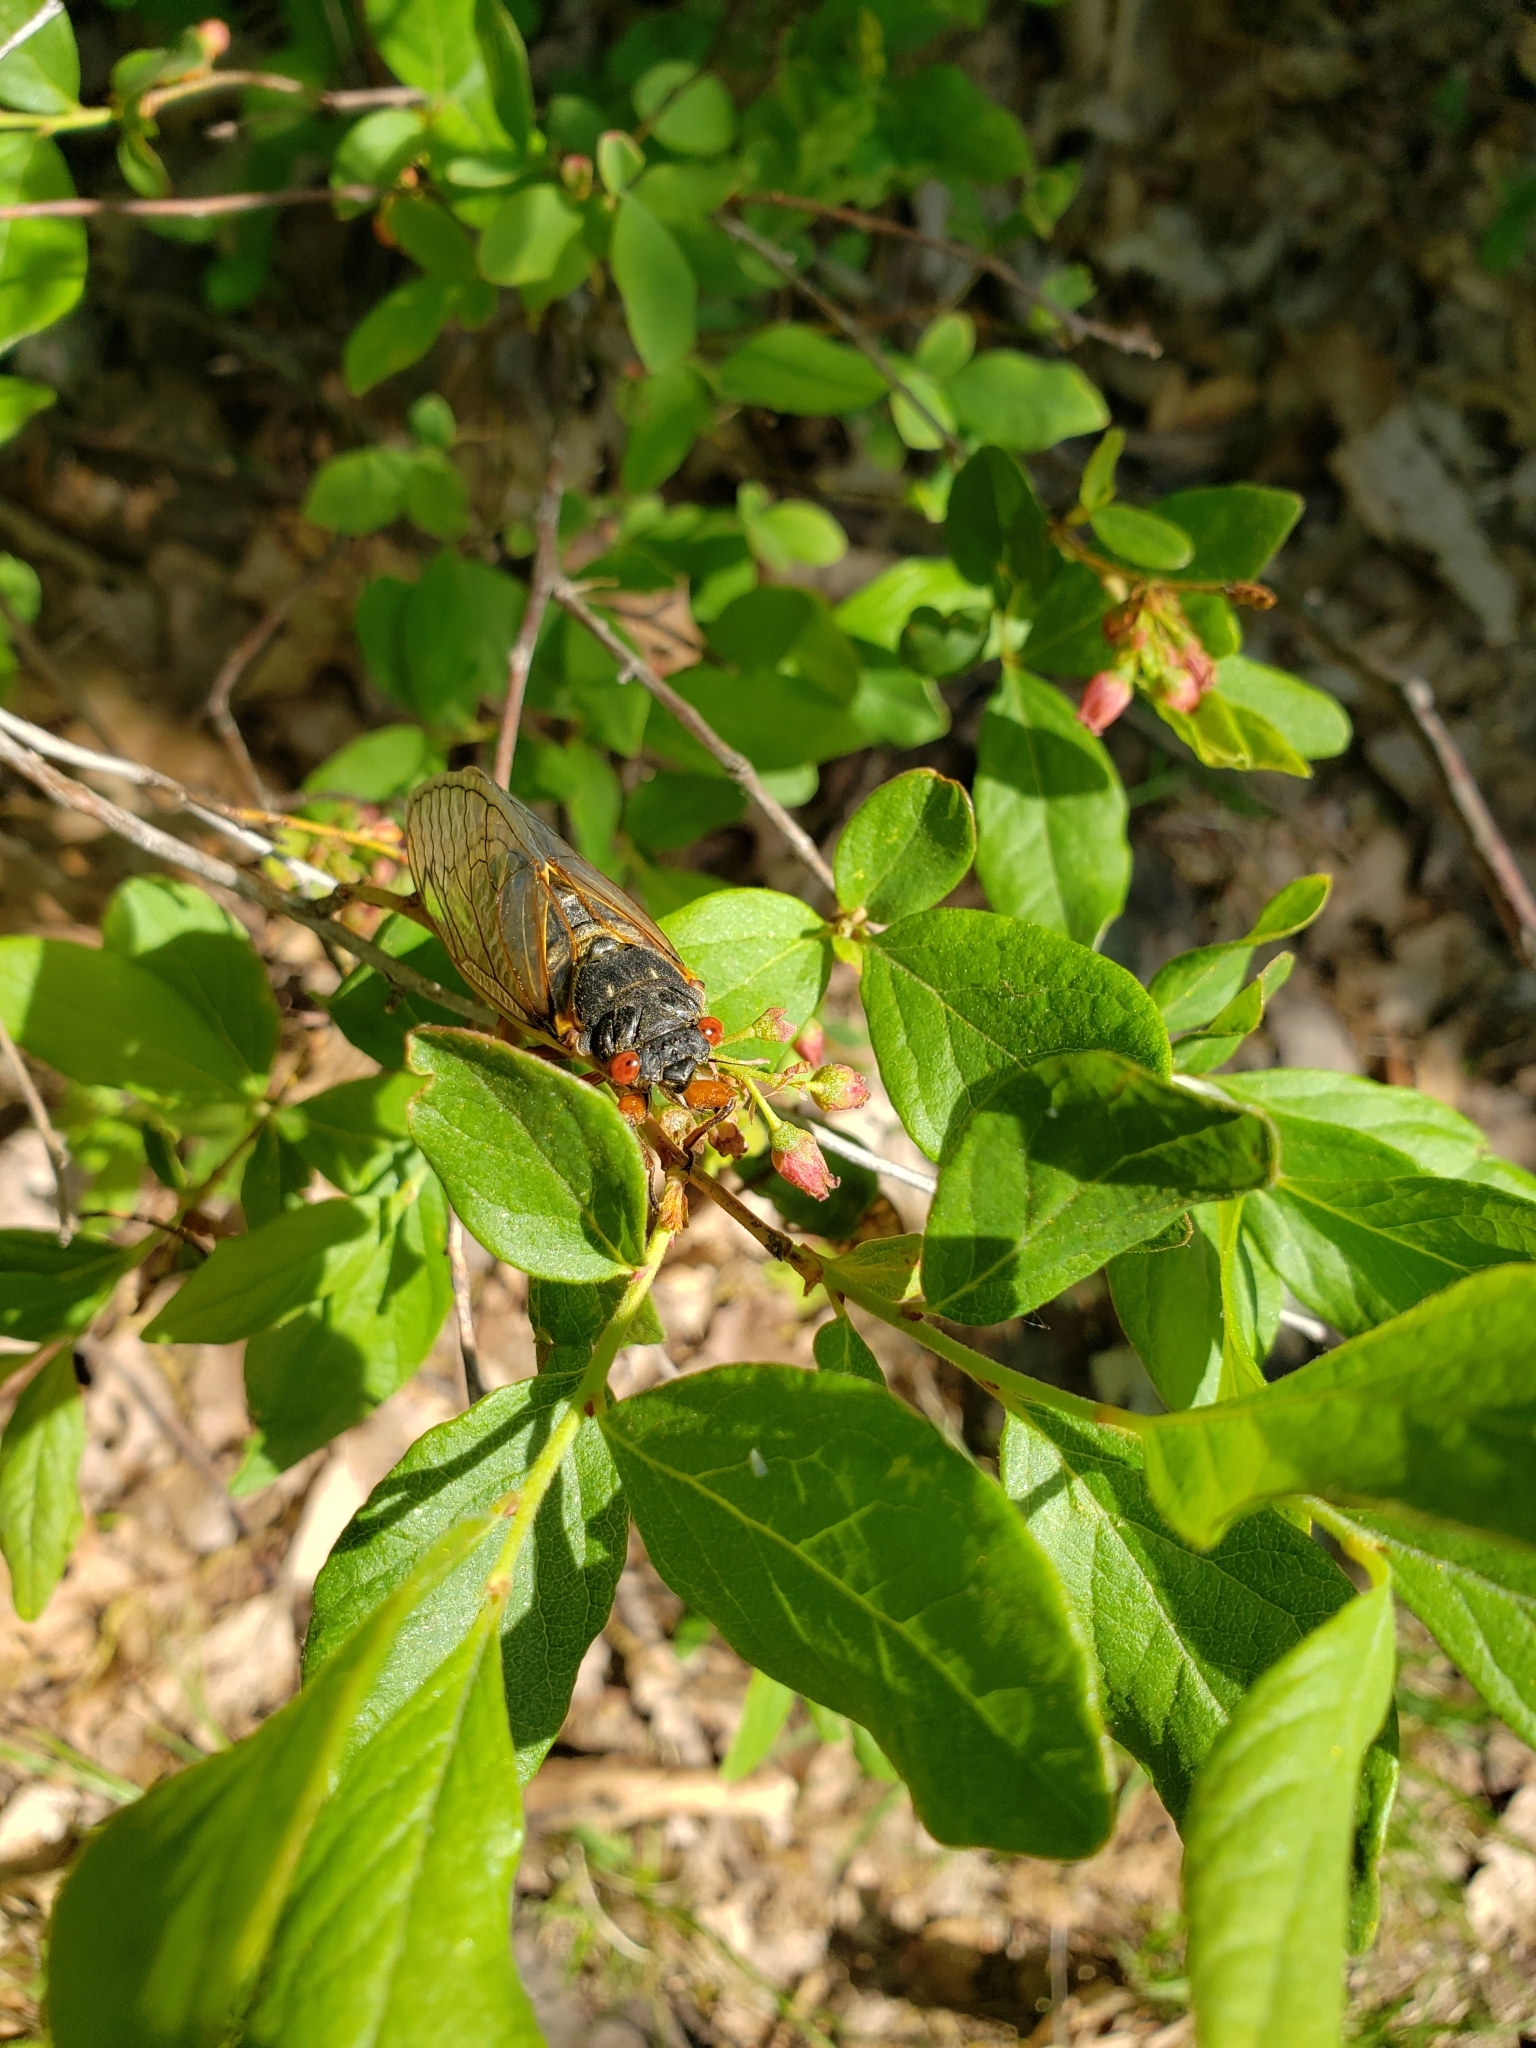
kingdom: Animalia
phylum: Arthropoda
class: Insecta
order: Hemiptera
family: Cicadidae
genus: Magicicada
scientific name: Magicicada septendecim
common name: Periodical cicada
